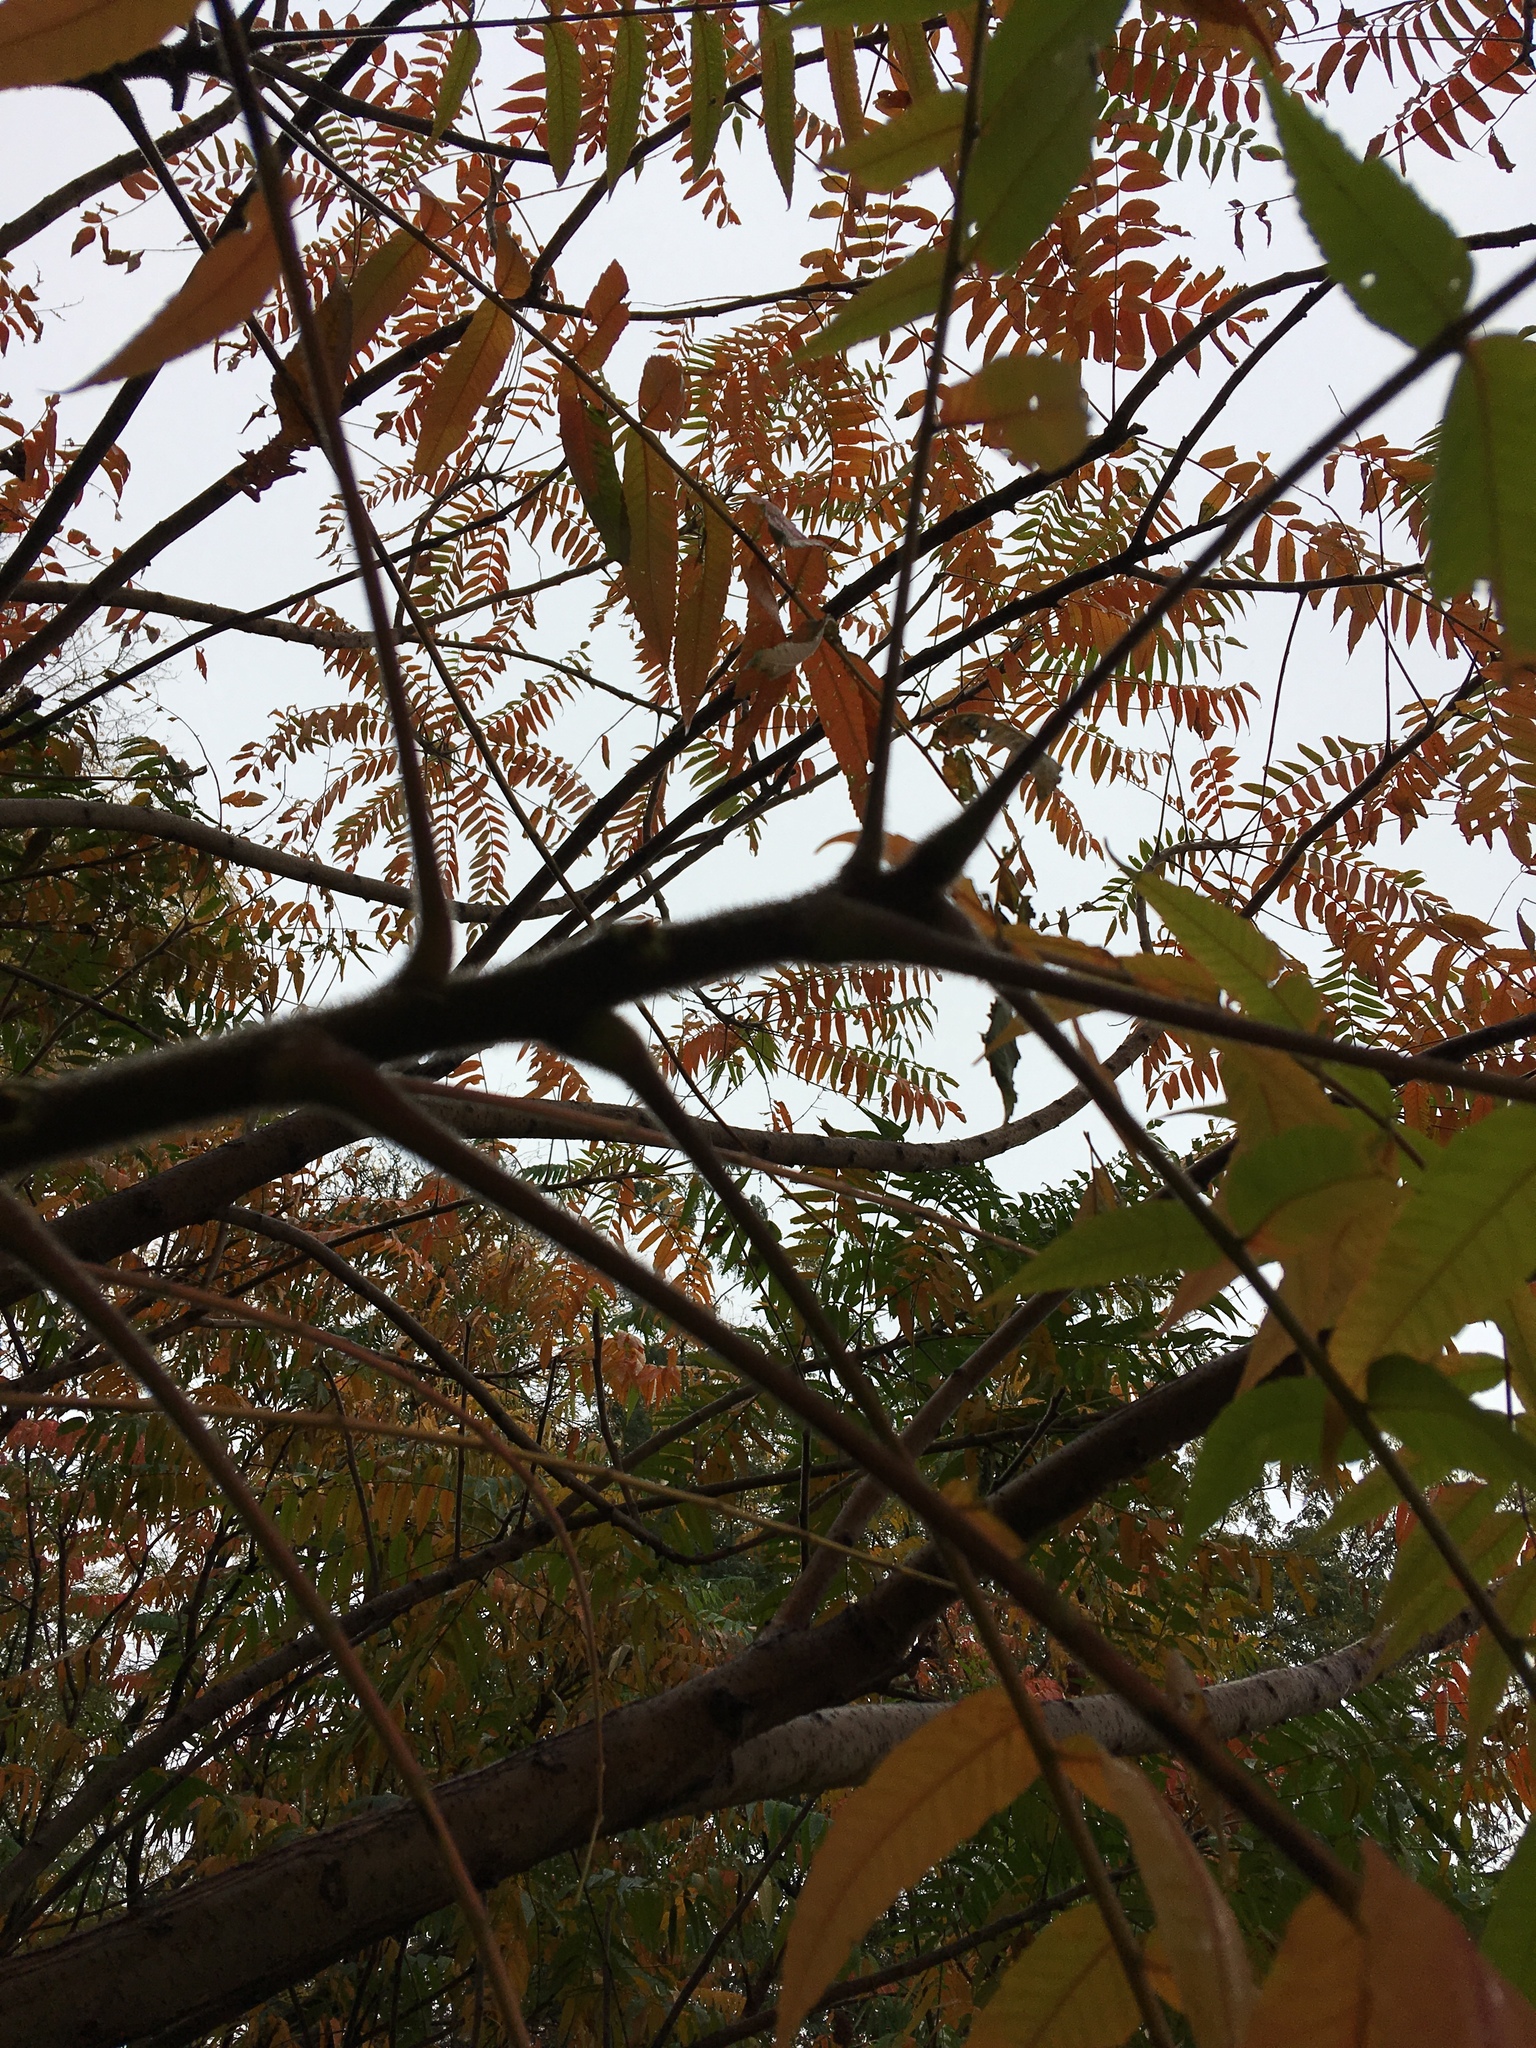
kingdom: Plantae
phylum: Tracheophyta
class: Magnoliopsida
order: Sapindales
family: Anacardiaceae
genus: Rhus
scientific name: Rhus typhina
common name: Staghorn sumac
